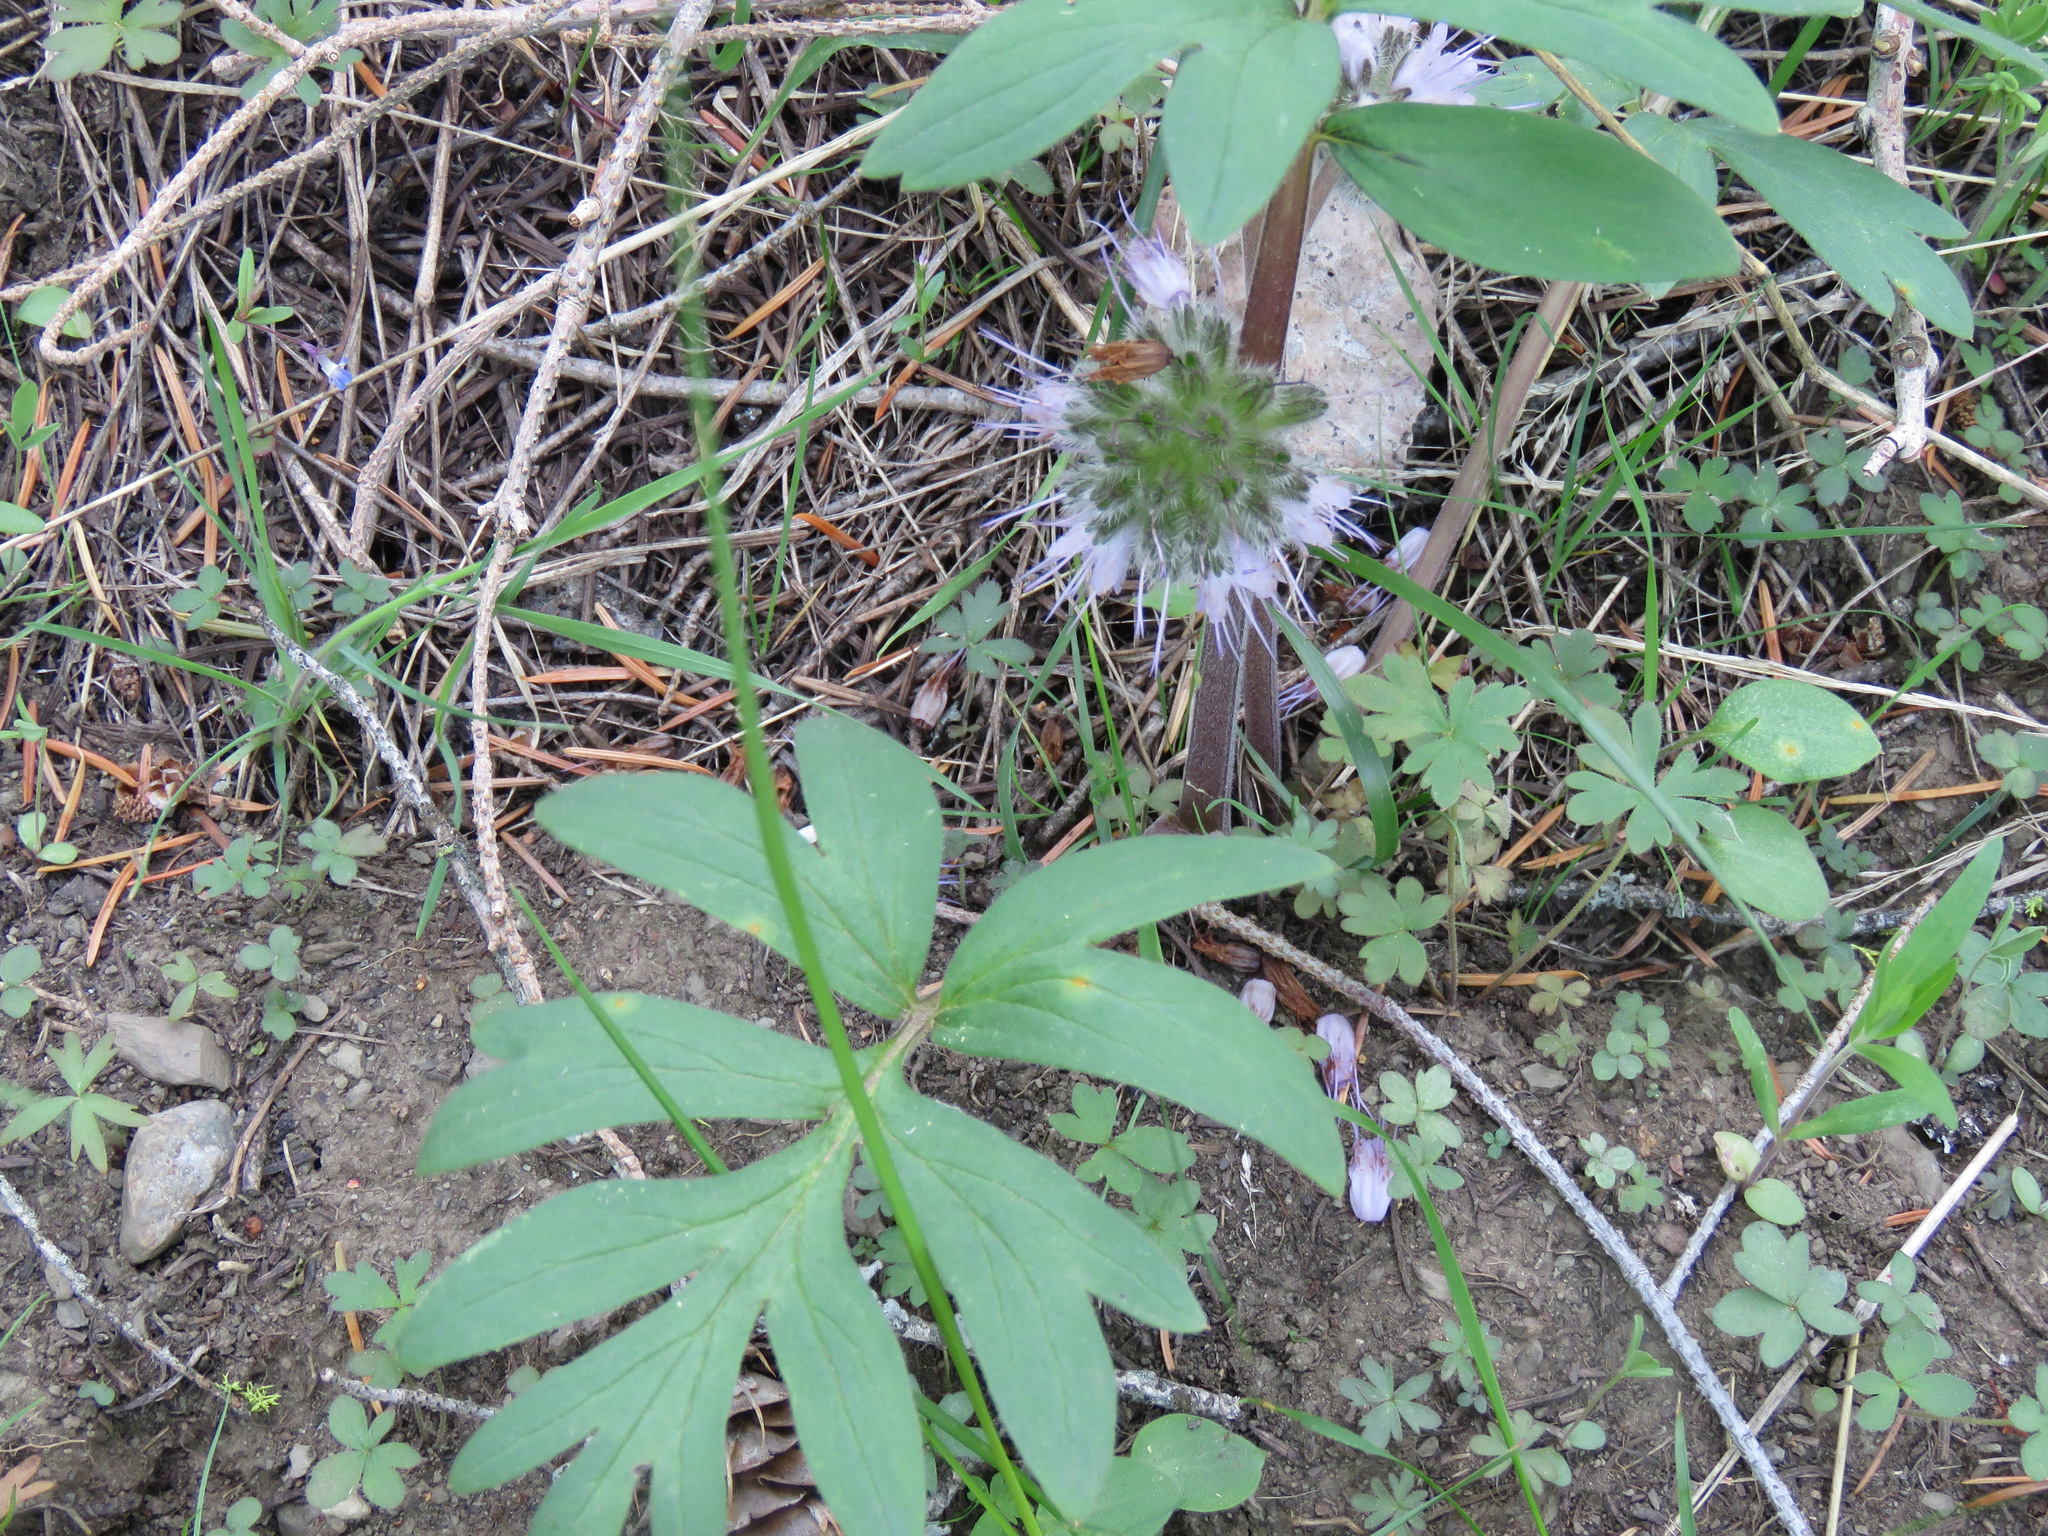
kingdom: Plantae
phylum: Tracheophyta
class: Magnoliopsida
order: Boraginales
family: Hydrophyllaceae
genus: Hydrophyllum
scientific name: Hydrophyllum capitatum
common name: Woollen-breeches
